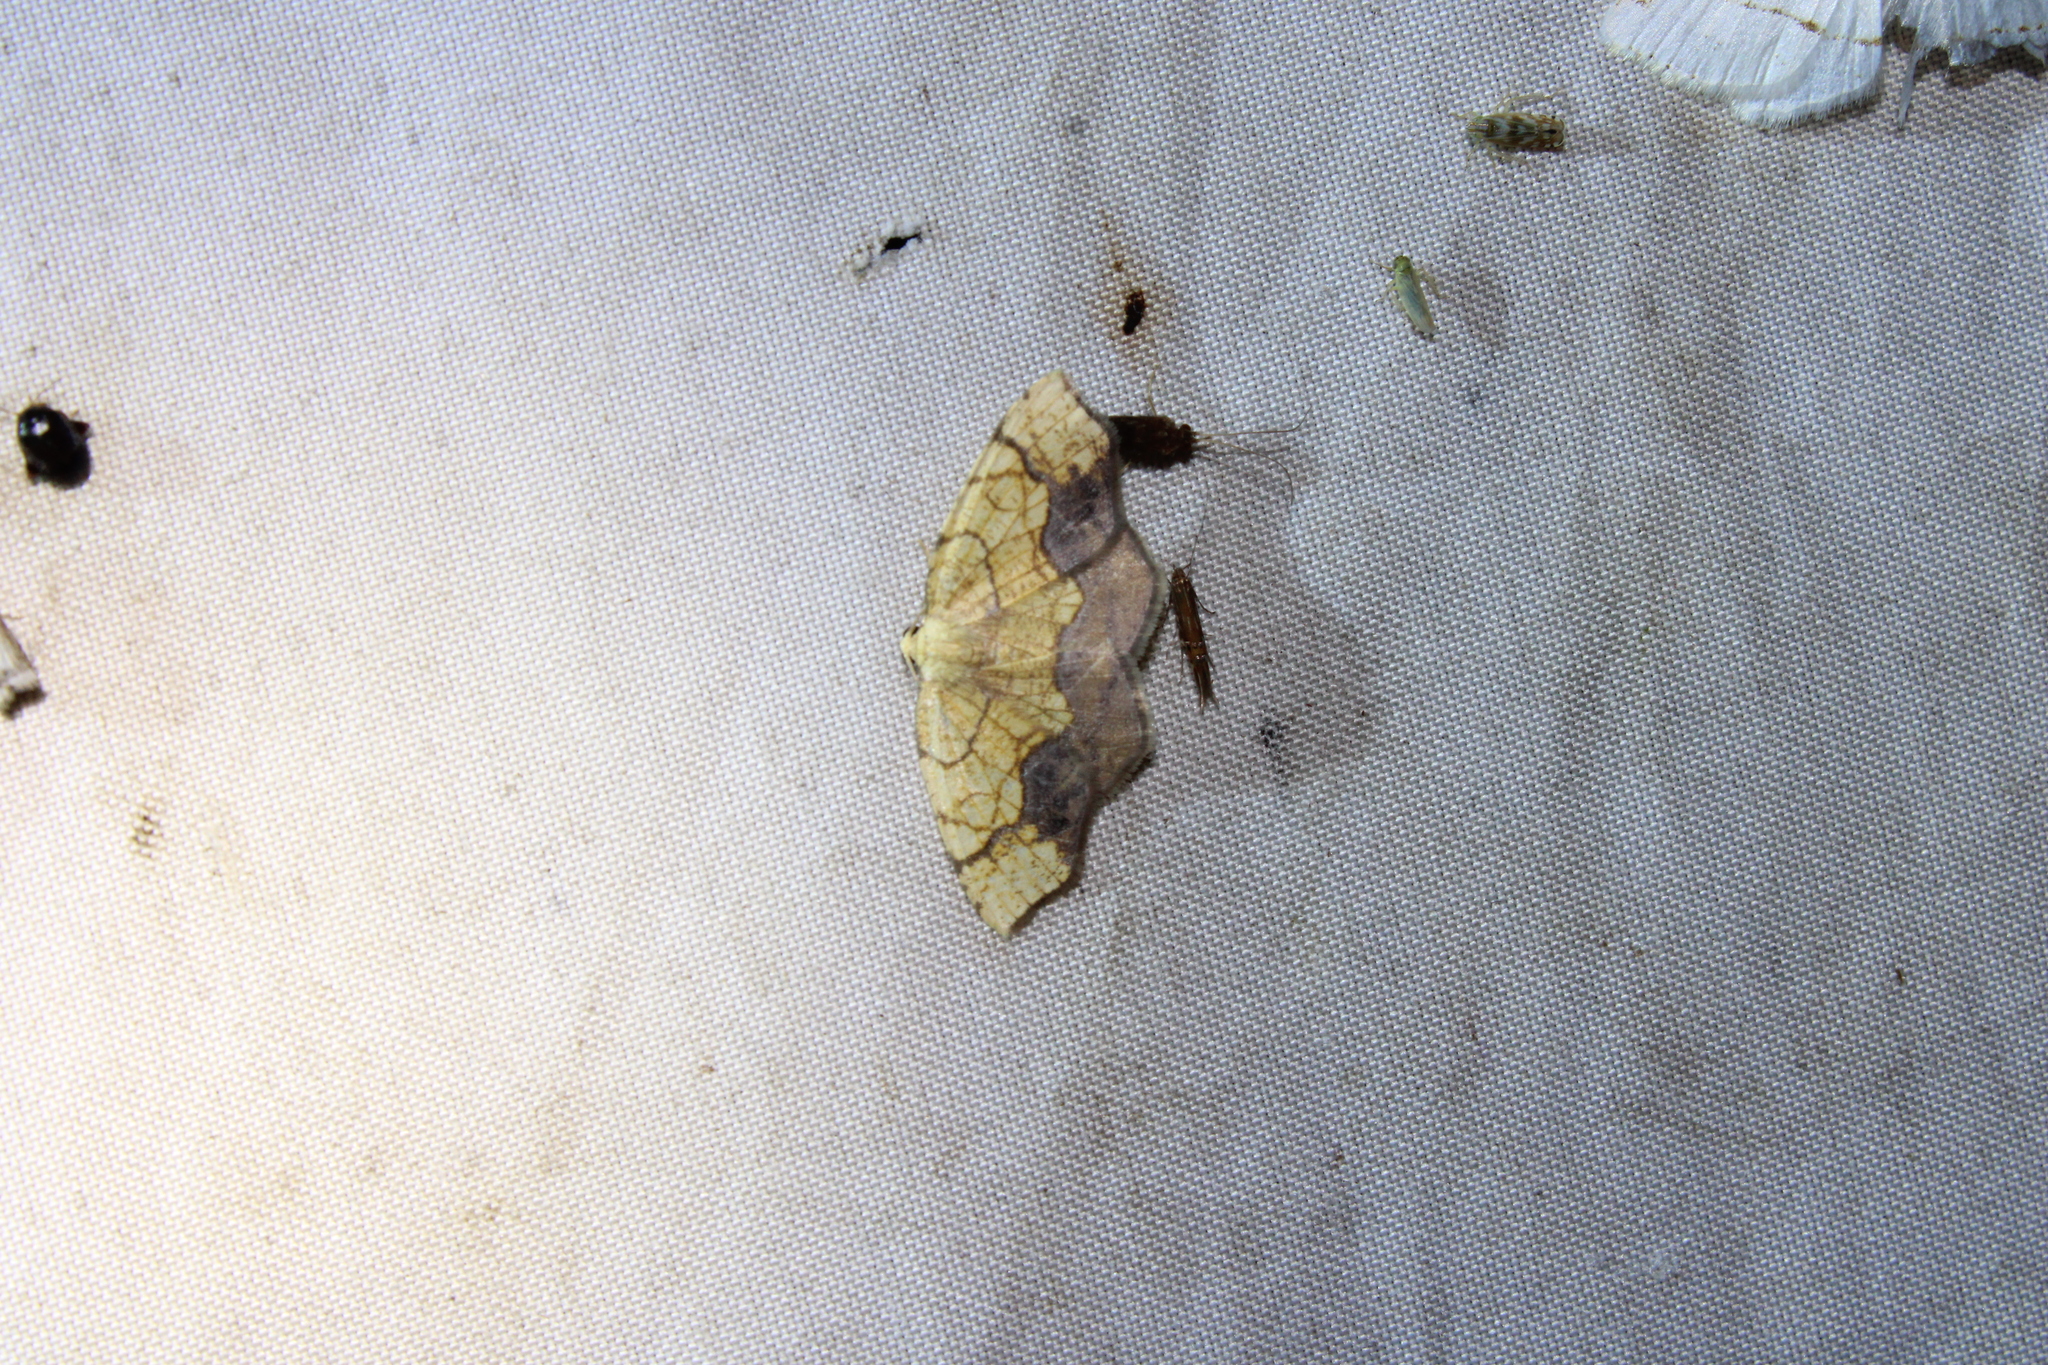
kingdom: Animalia
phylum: Arthropoda
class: Insecta
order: Lepidoptera
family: Geometridae
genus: Nematocampa
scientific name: Nematocampa resistaria
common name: Horned spanworm moth
